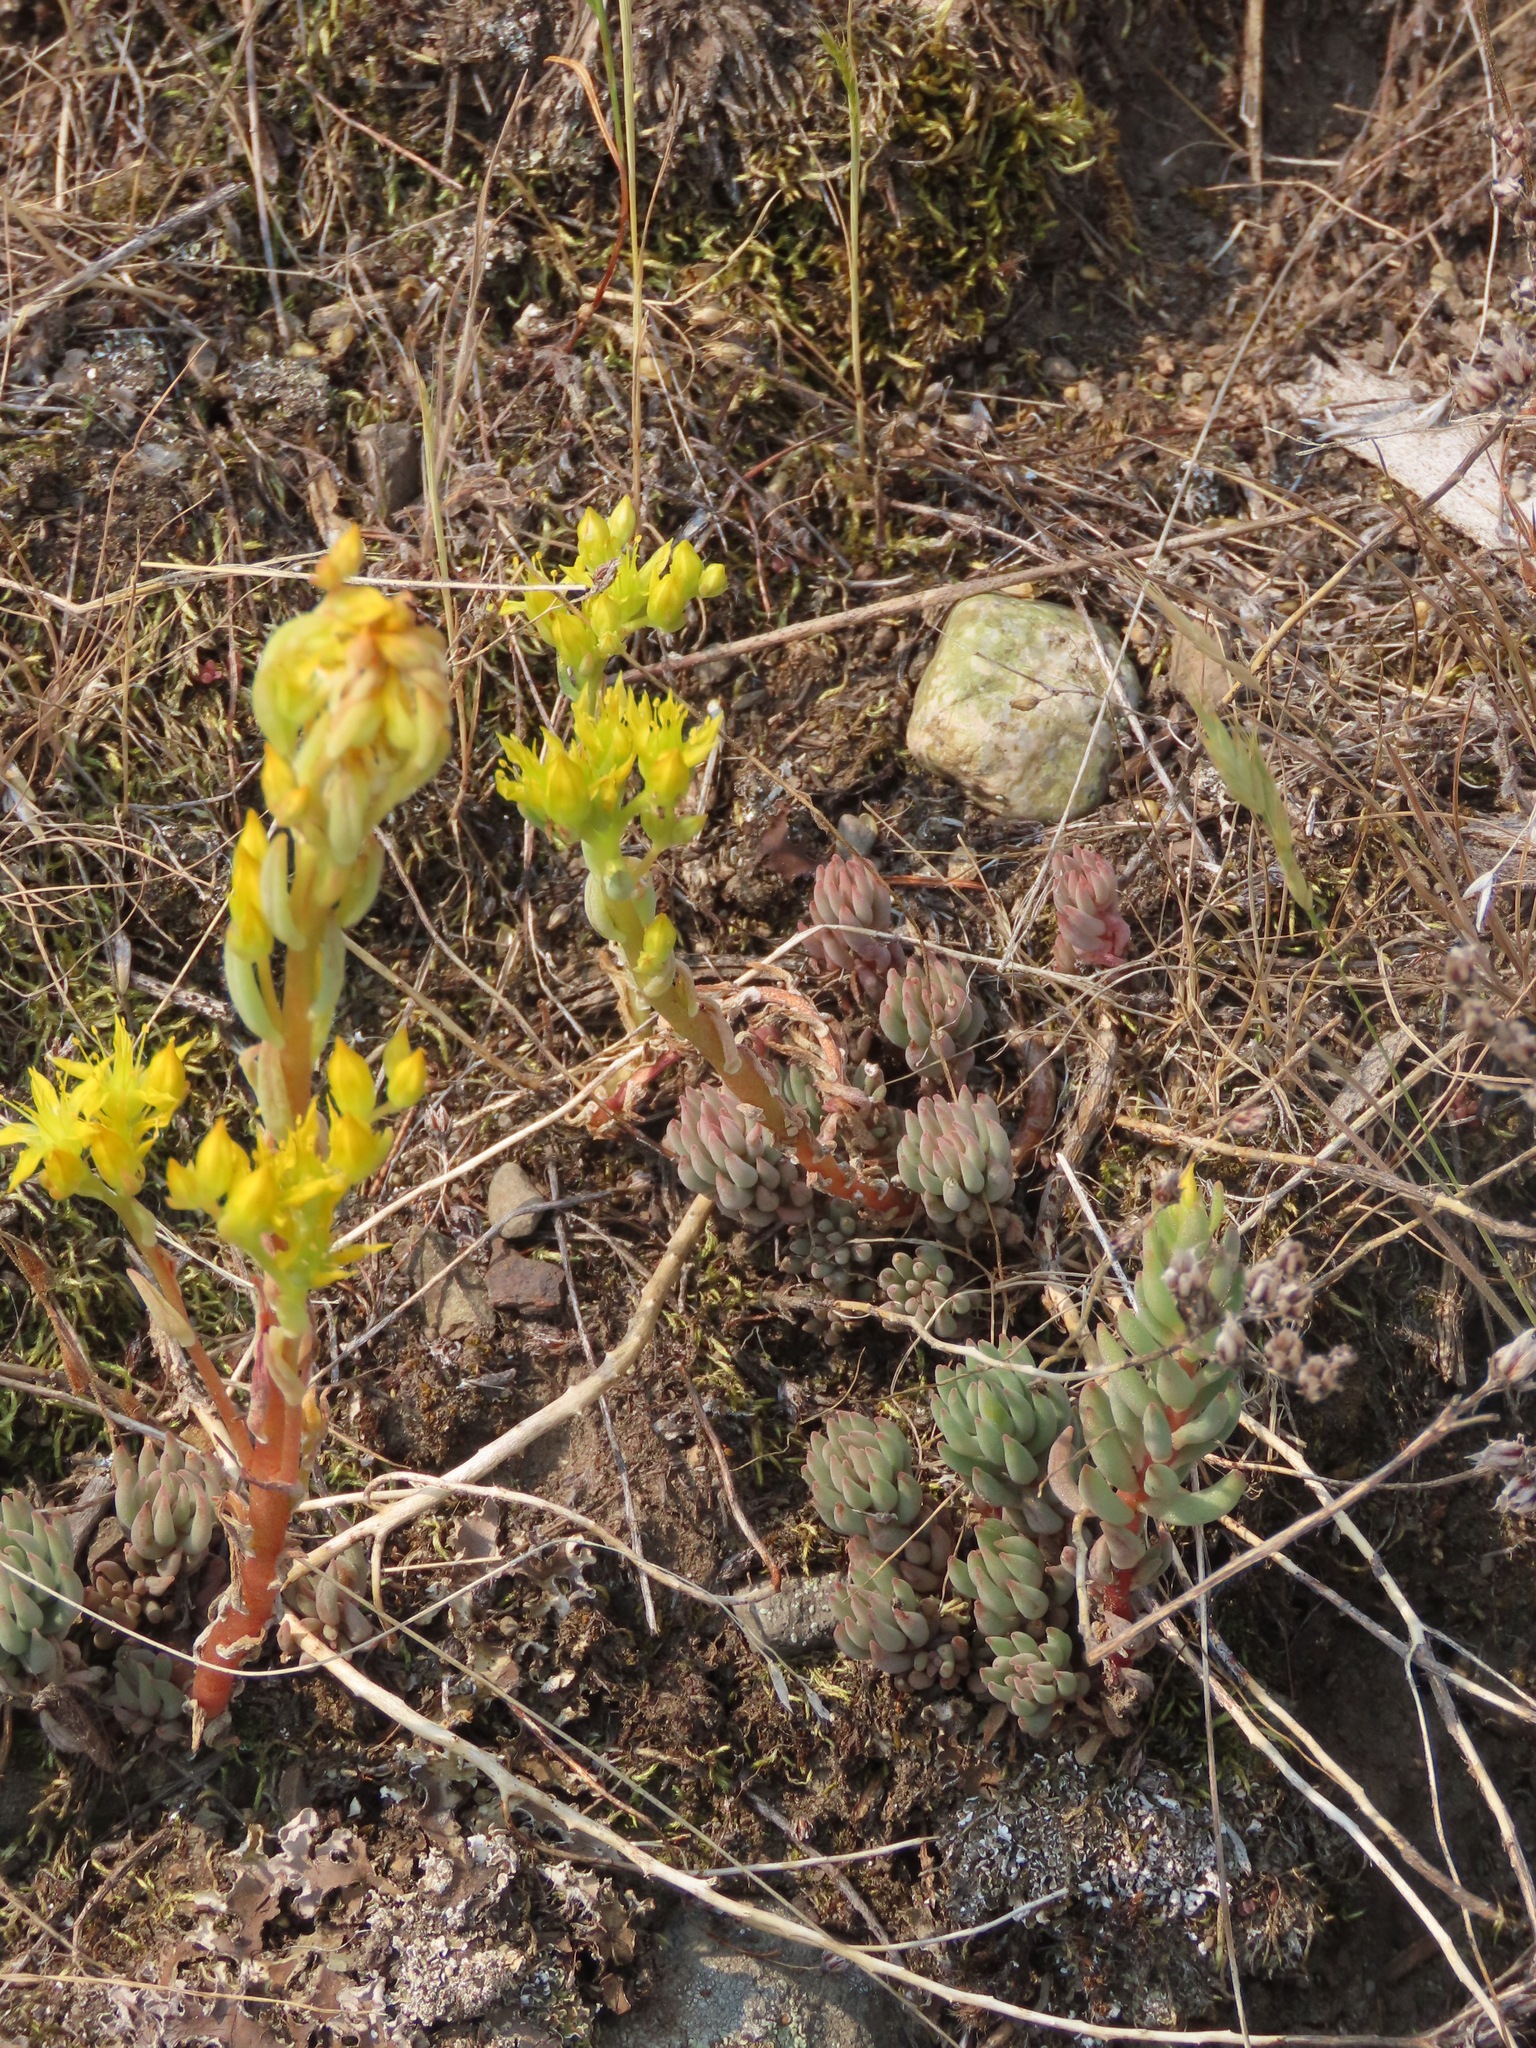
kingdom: Plantae
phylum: Tracheophyta
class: Magnoliopsida
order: Saxifragales
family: Crassulaceae
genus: Sedum
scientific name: Sedum lanceolatum
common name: Common stonecrop
